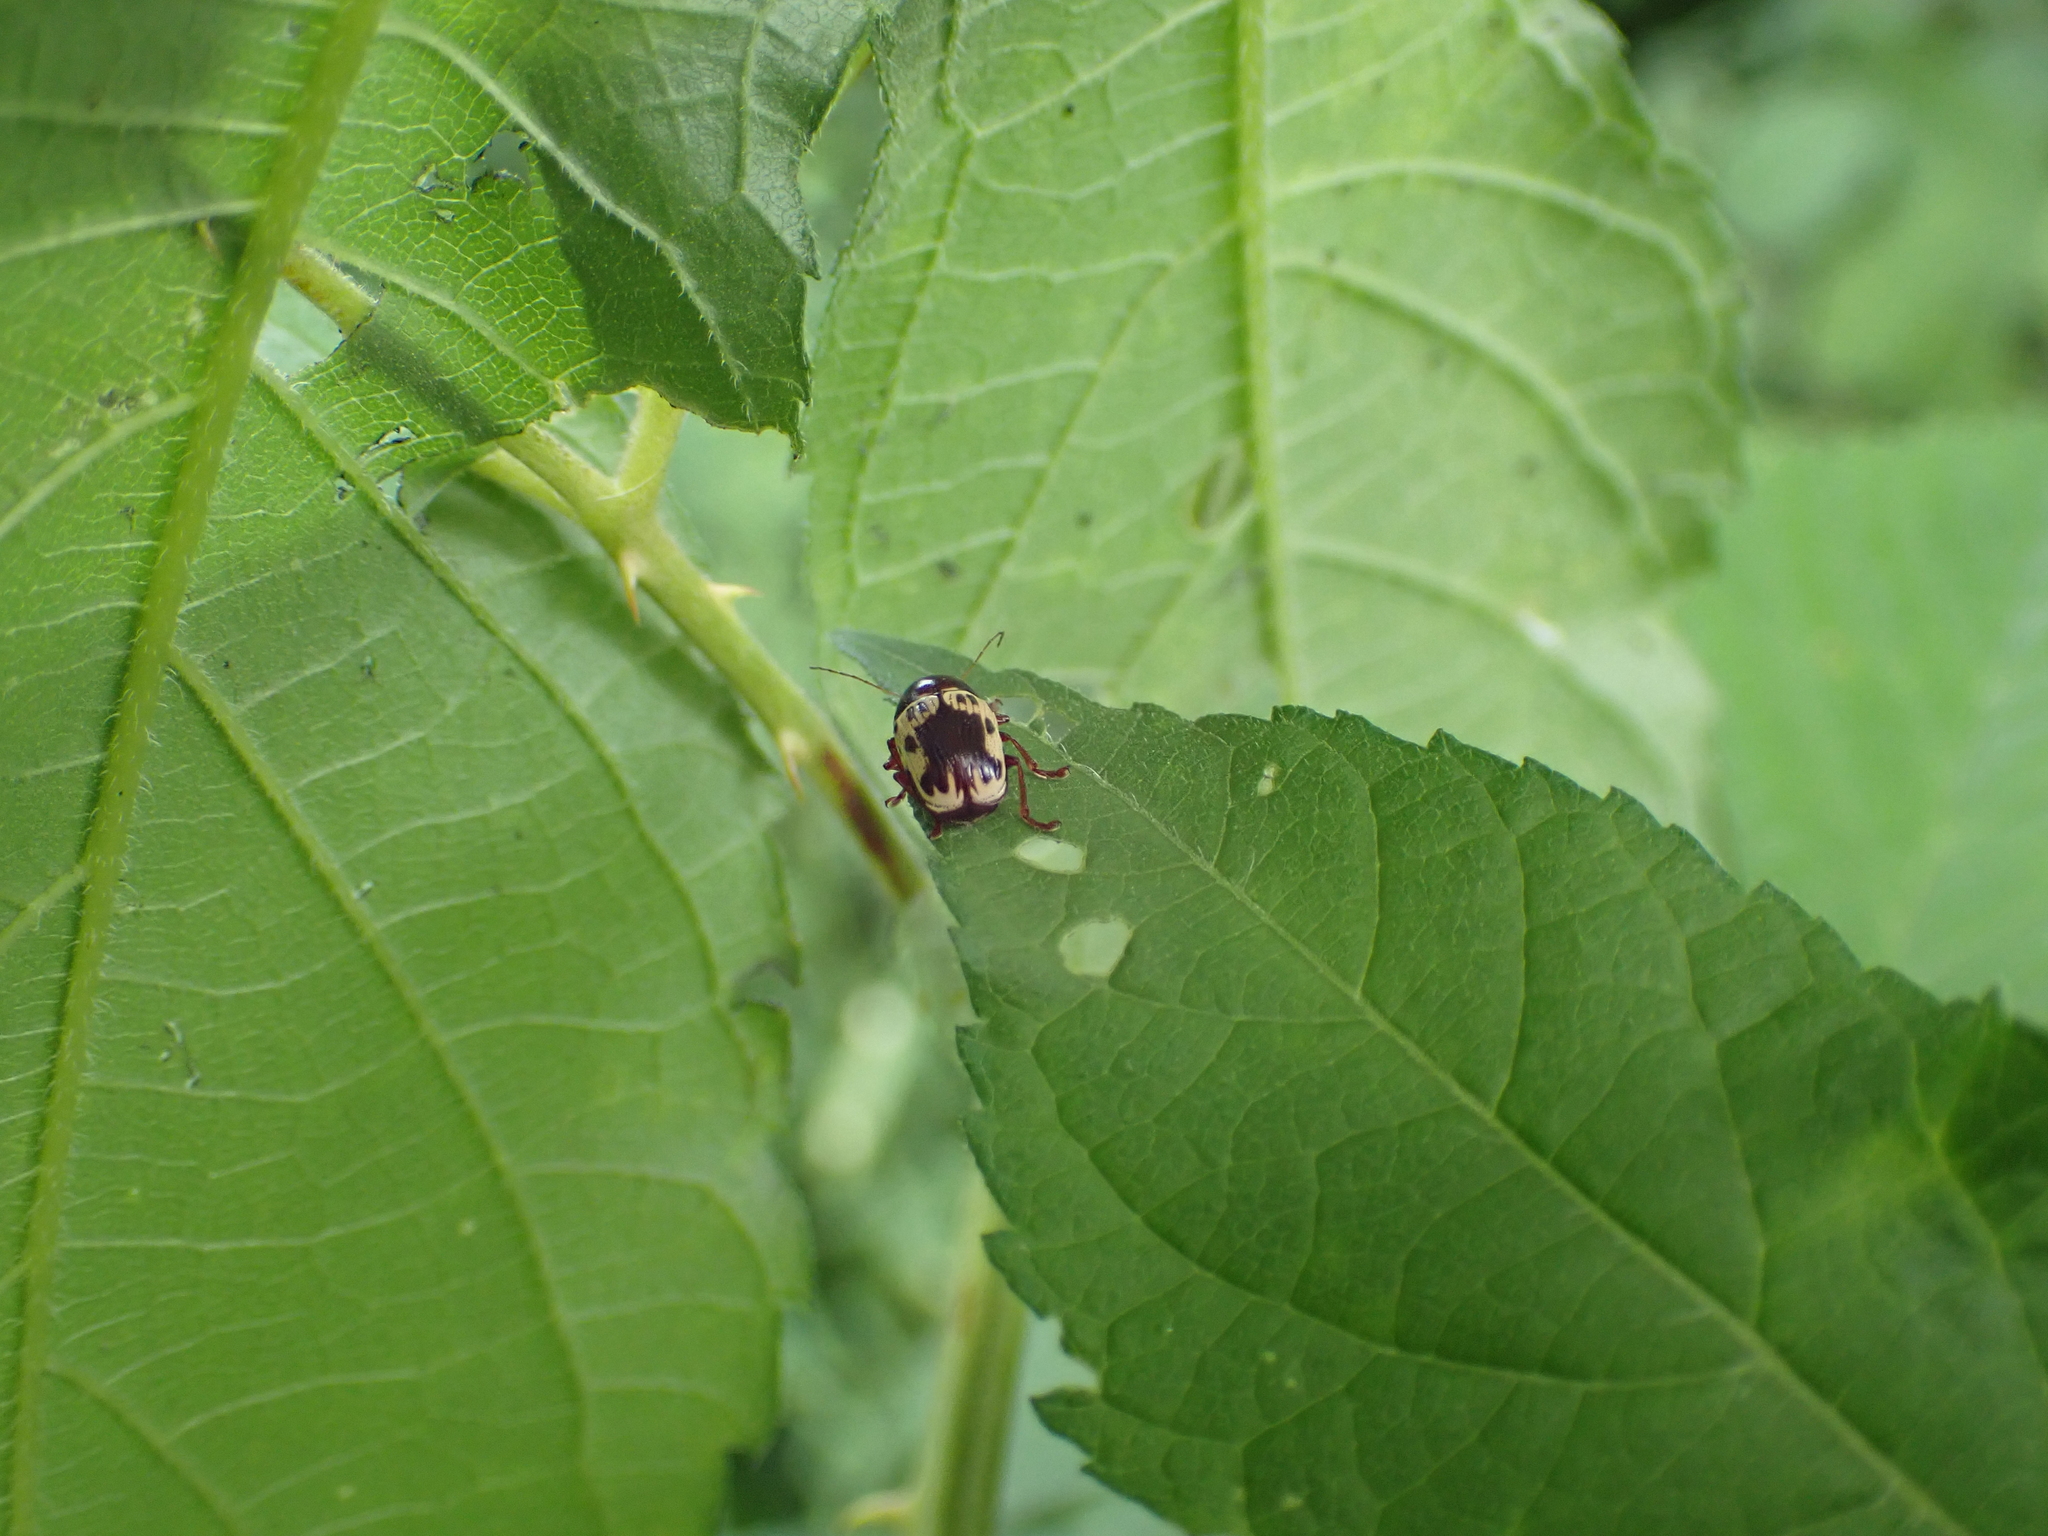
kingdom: Animalia
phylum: Arthropoda
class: Insecta
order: Coleoptera
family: Chrysomelidae
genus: Cryptocephalus
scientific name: Cryptocephalus mutabilis
